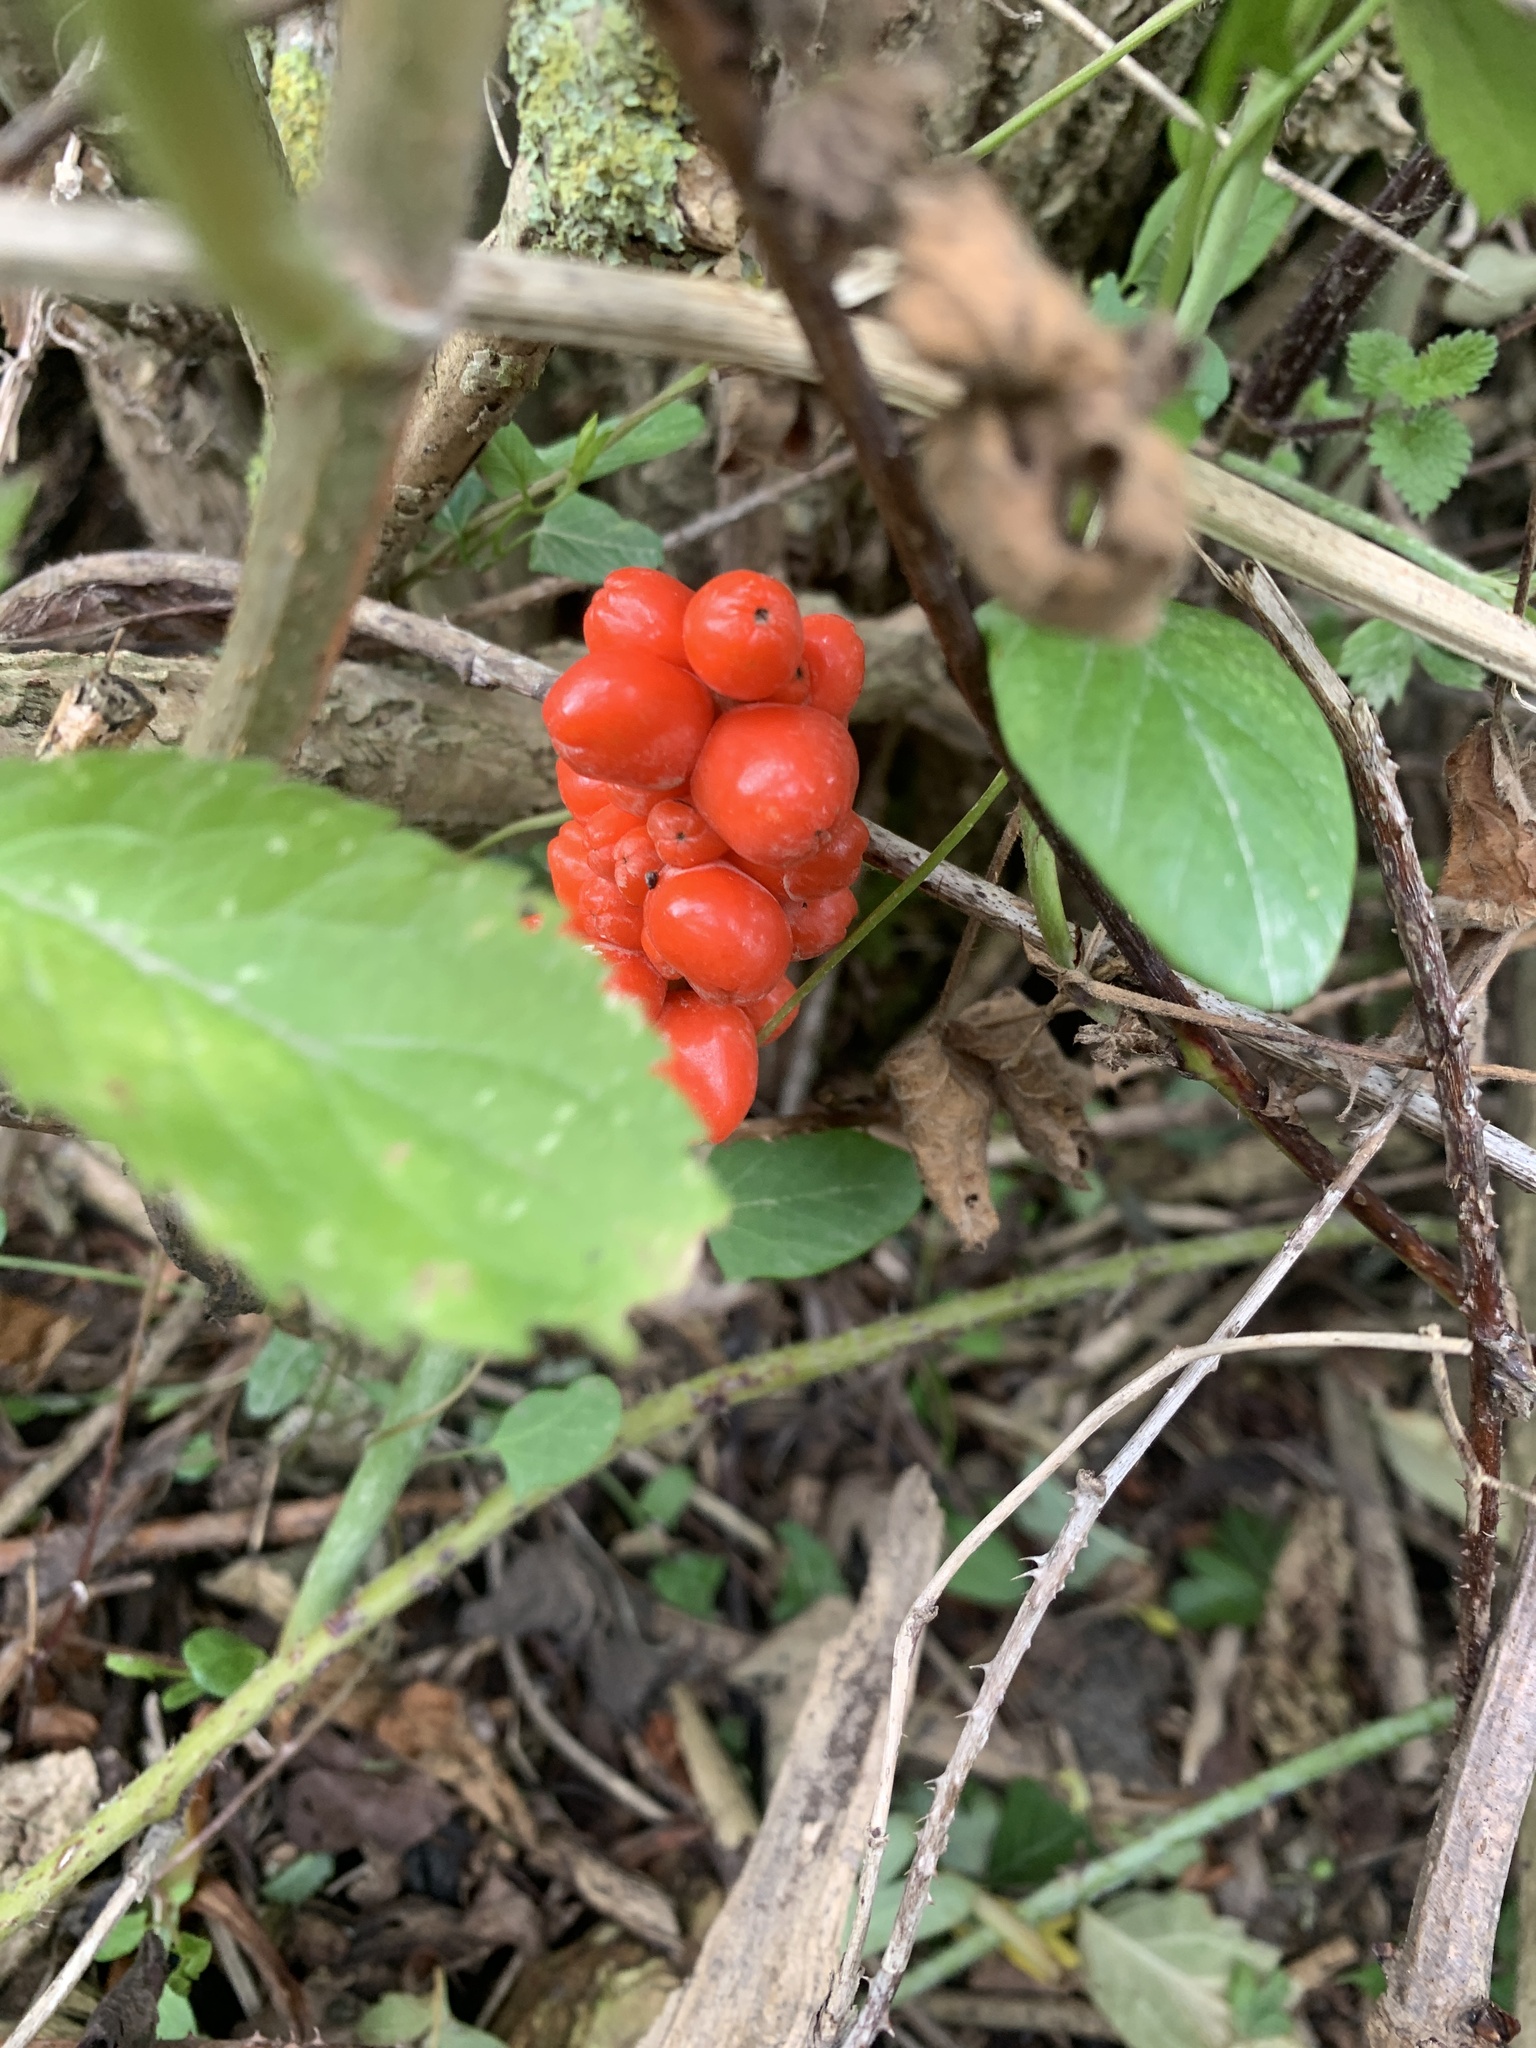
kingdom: Plantae
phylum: Tracheophyta
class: Liliopsida
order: Alismatales
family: Araceae
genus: Arum
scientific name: Arum maculatum
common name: Lords-and-ladies
